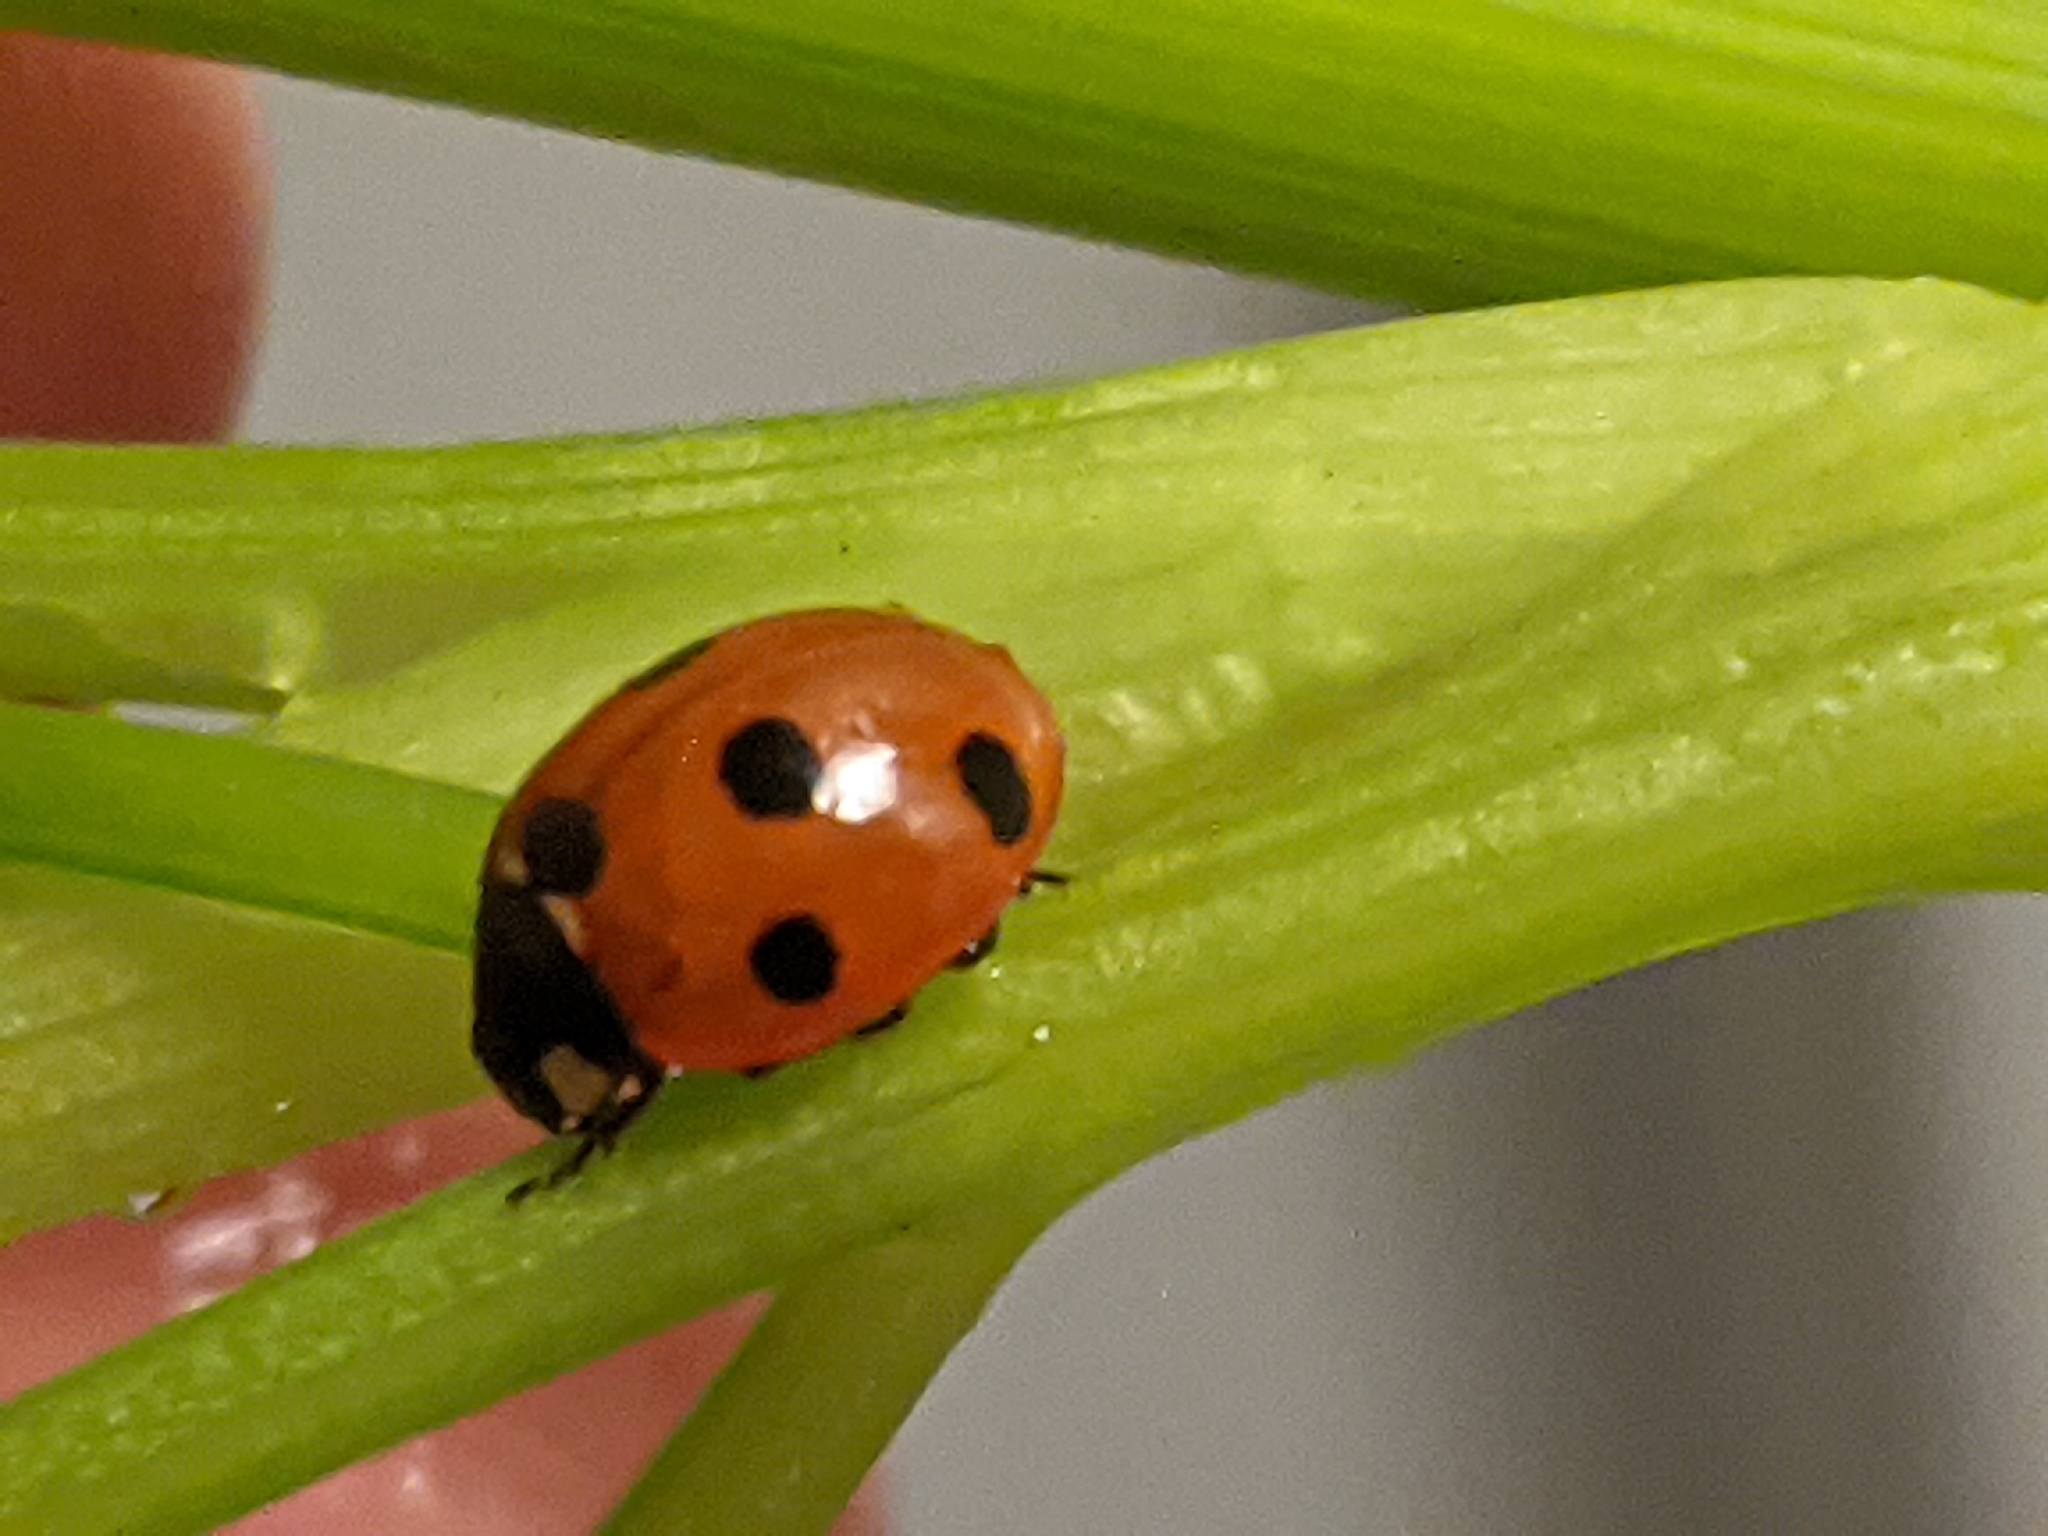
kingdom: Animalia
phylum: Arthropoda
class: Insecta
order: Coleoptera
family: Coccinellidae
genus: Coccinella
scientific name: Coccinella septempunctata
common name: Sevenspotted lady beetle
